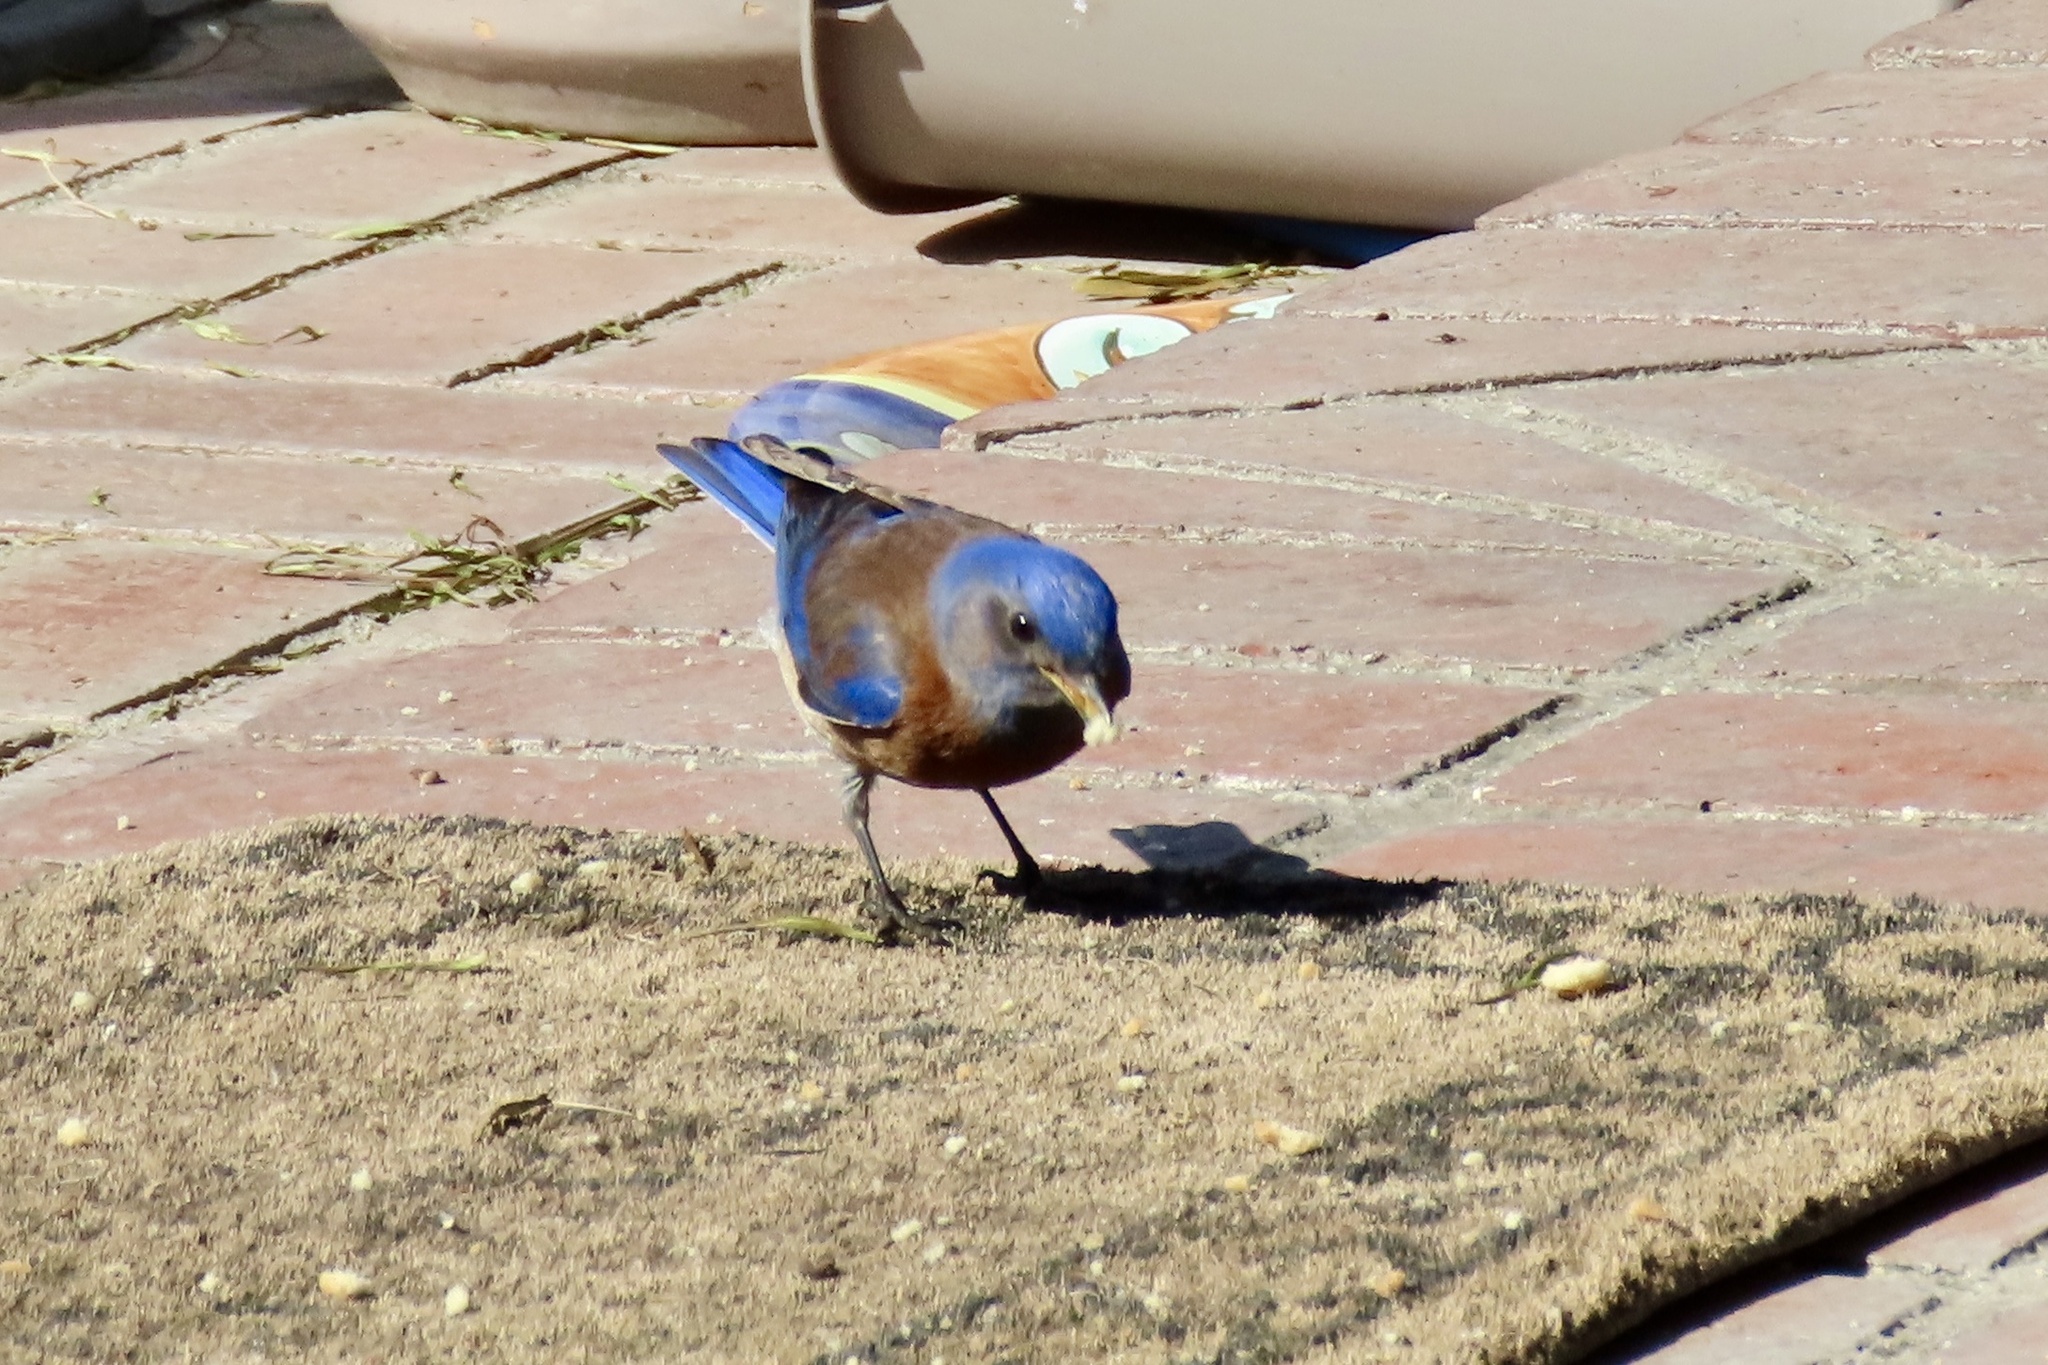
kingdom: Animalia
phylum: Chordata
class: Aves
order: Passeriformes
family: Turdidae
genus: Sialia
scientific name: Sialia mexicana
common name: Western bluebird
